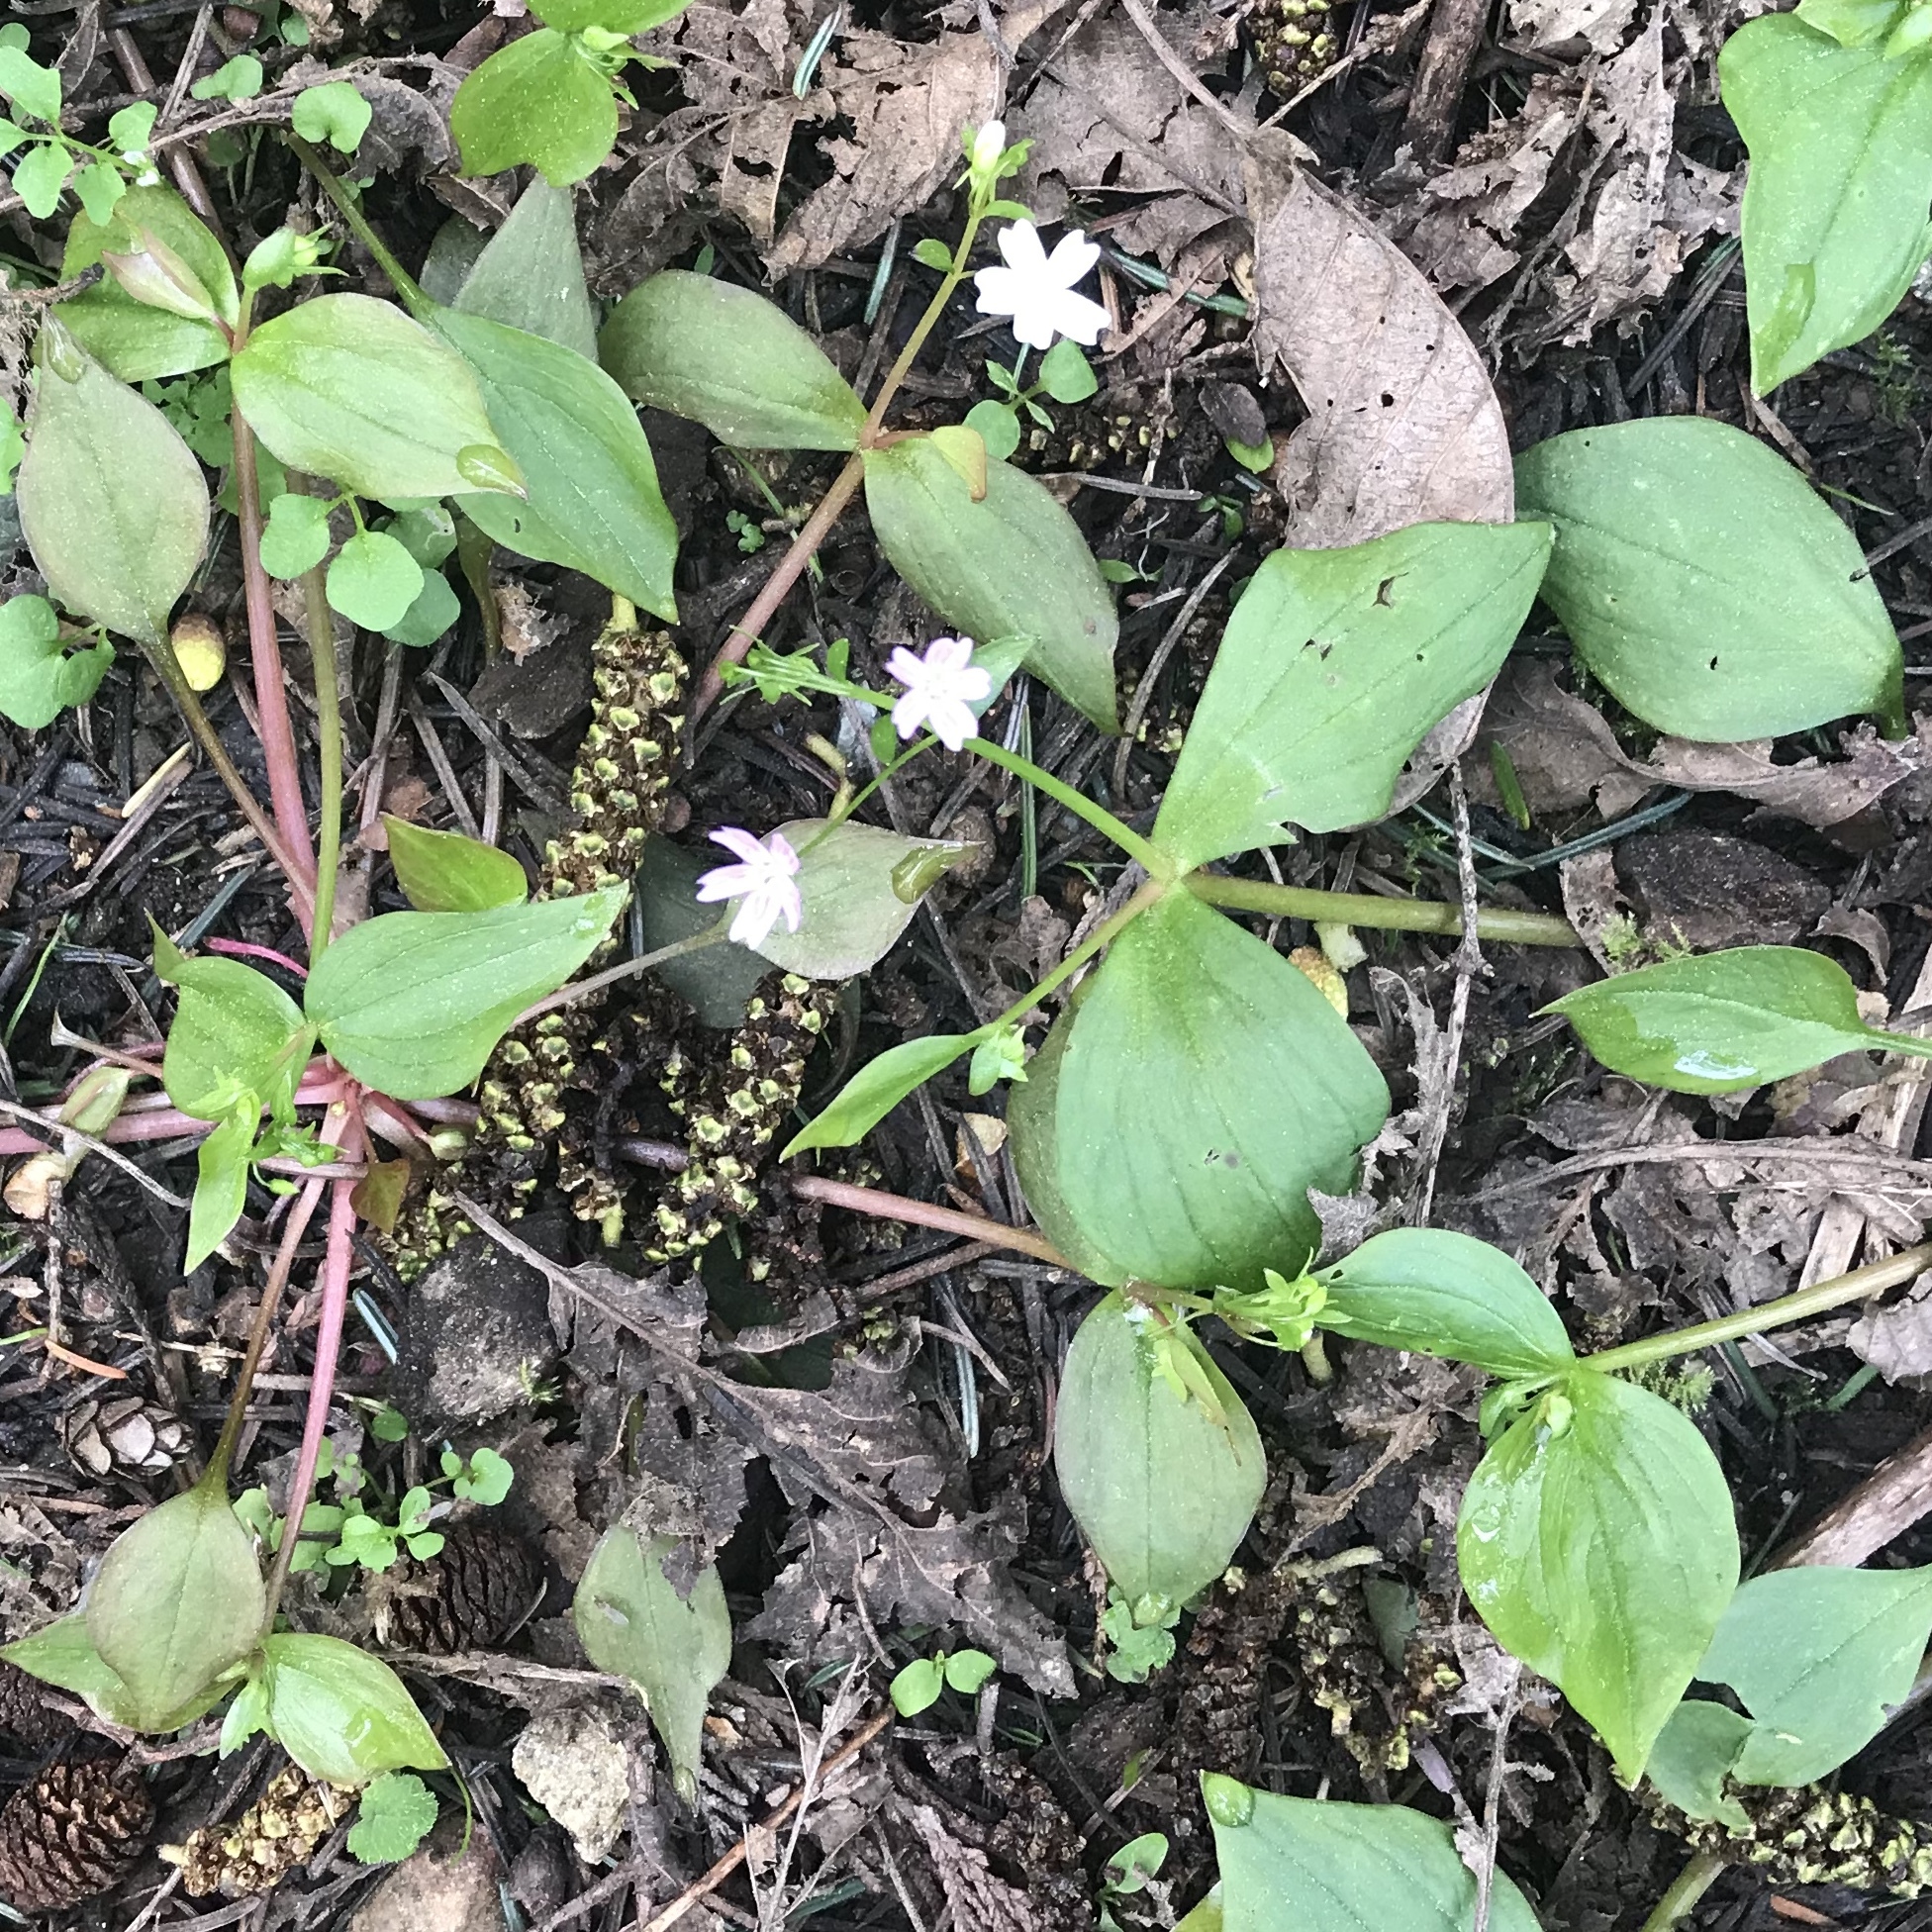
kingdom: Plantae
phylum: Tracheophyta
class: Magnoliopsida
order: Caryophyllales
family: Montiaceae
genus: Claytonia
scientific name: Claytonia sibirica
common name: Pink purslane
